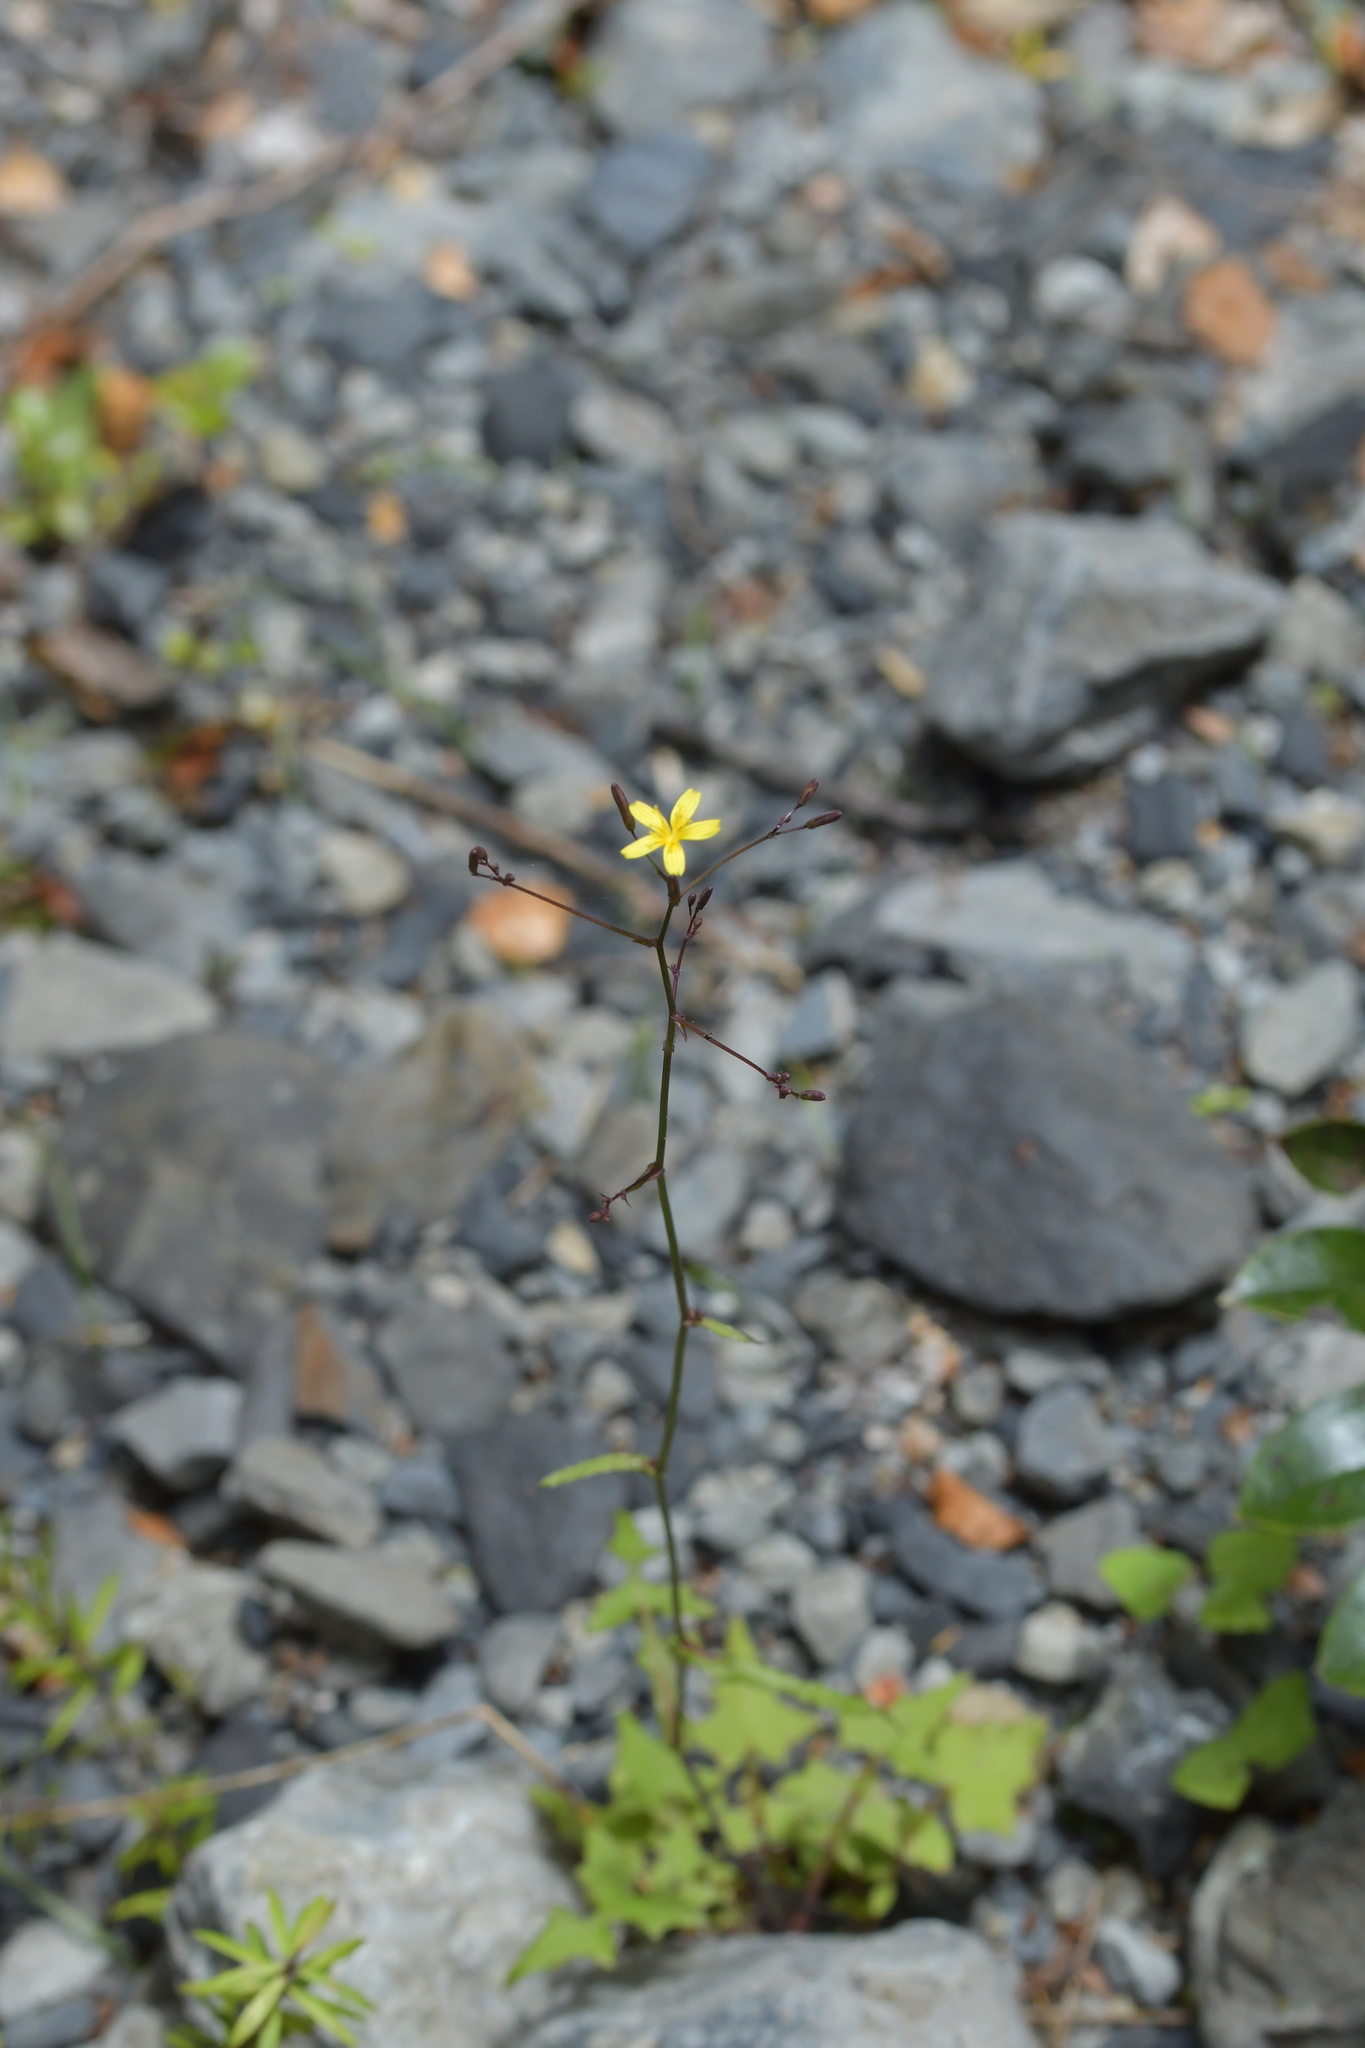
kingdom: Plantae
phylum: Tracheophyta
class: Magnoliopsida
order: Asterales
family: Asteraceae
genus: Mycelis
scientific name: Mycelis muralis
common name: Wall lettuce
